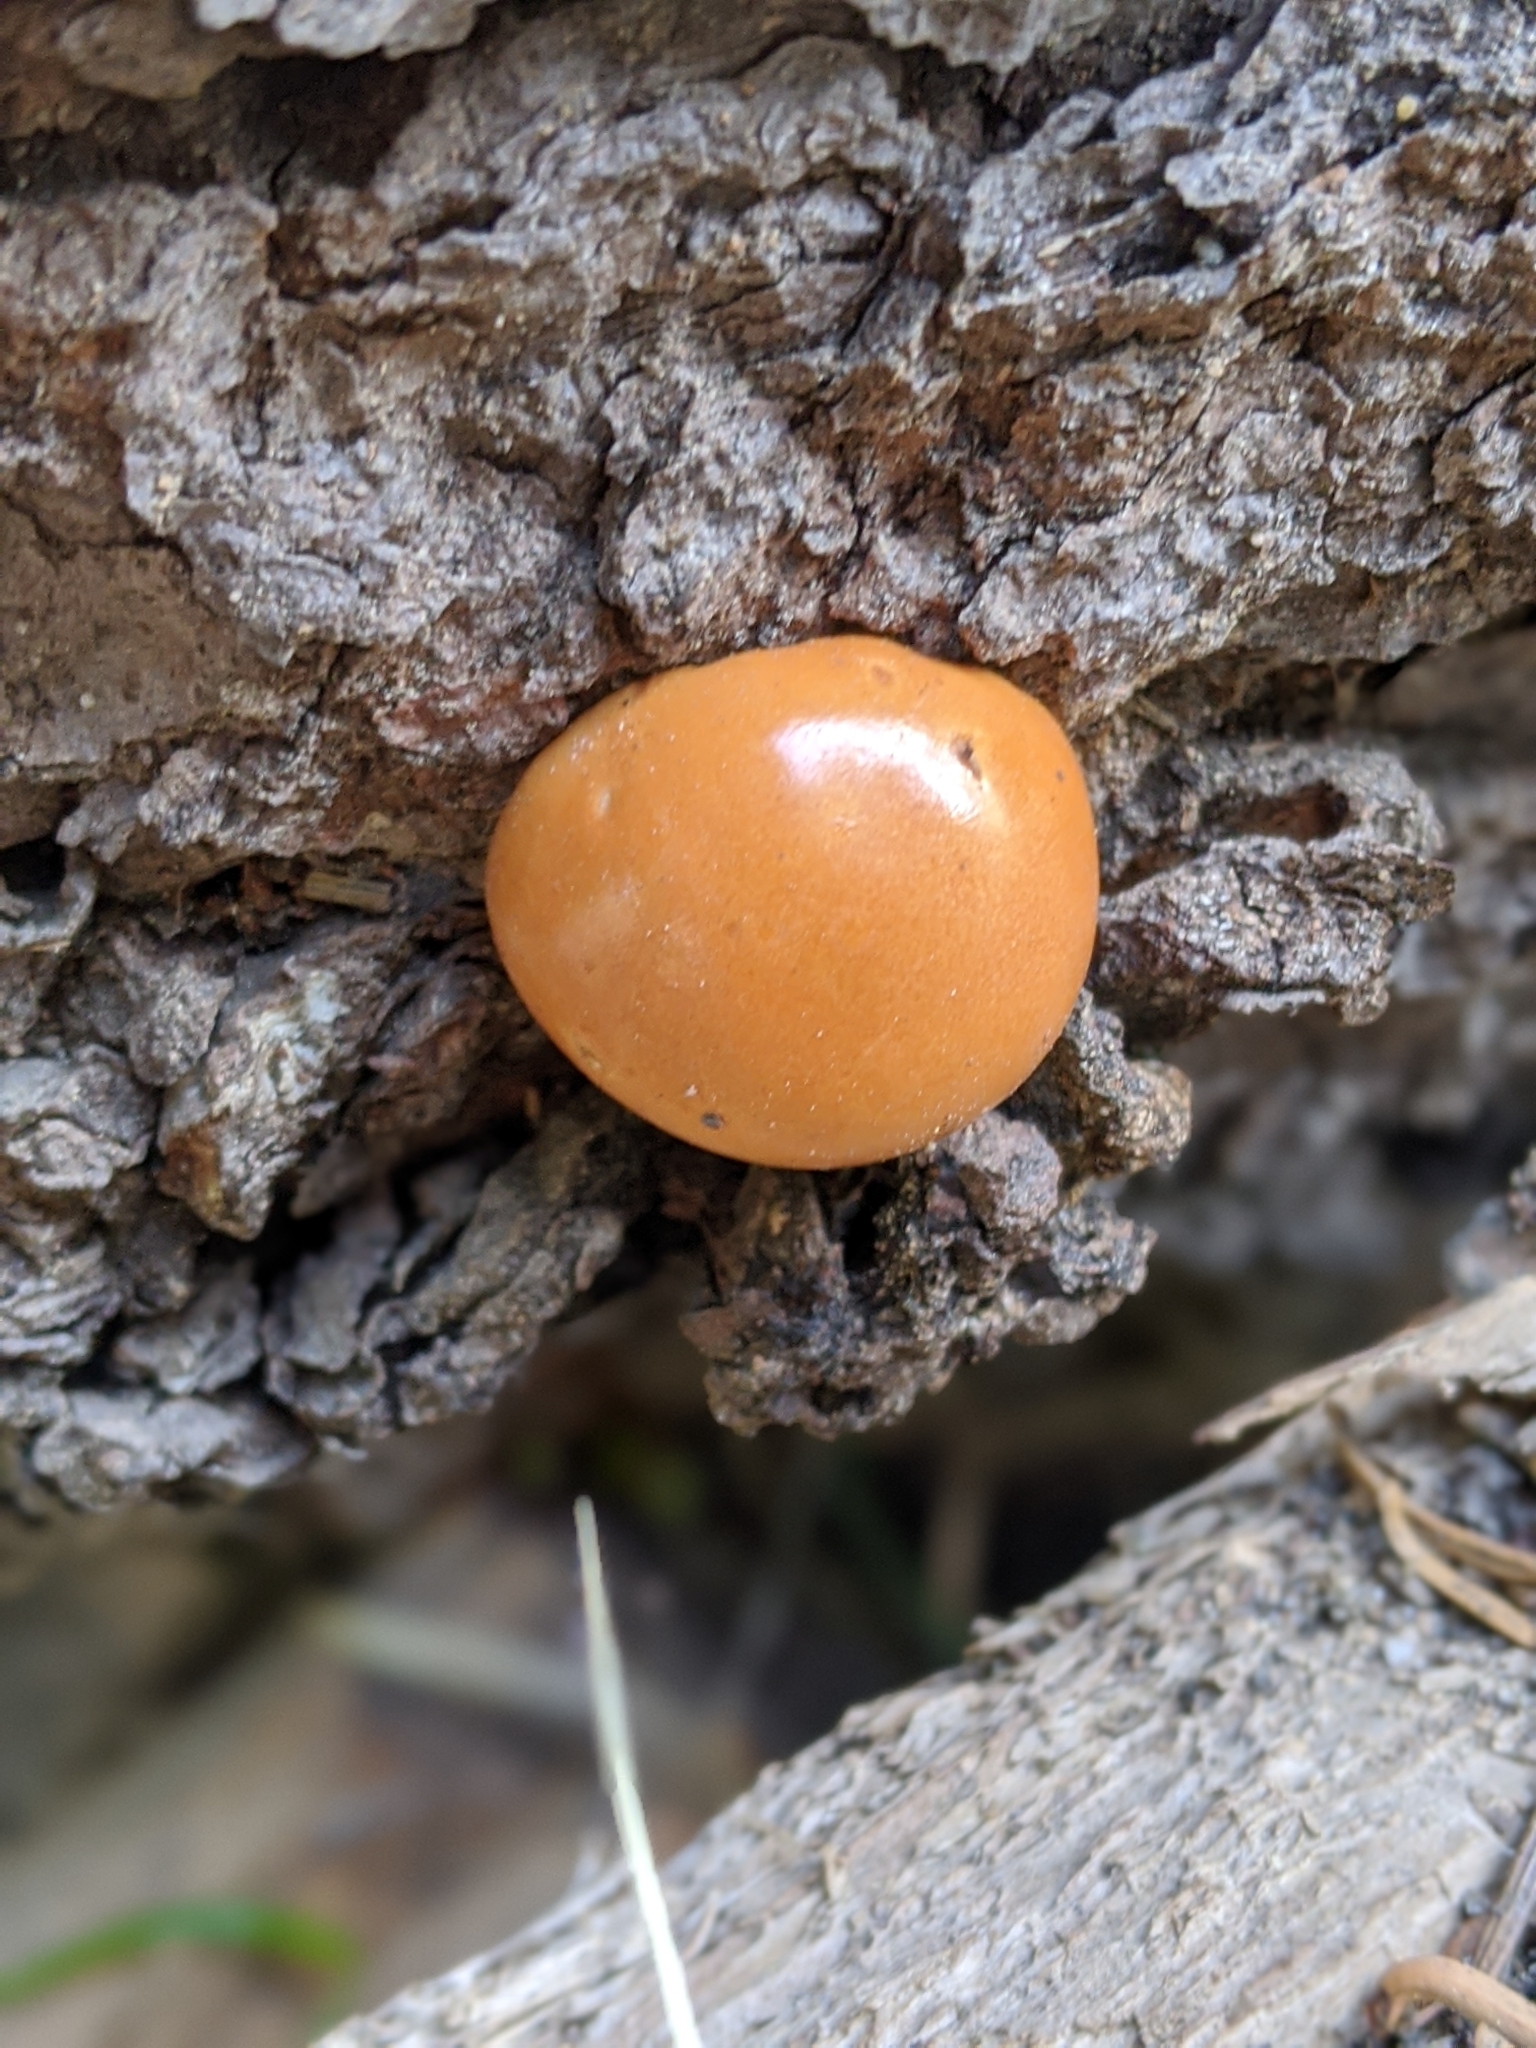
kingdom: Fungi
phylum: Basidiomycota
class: Agaricomycetes
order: Polyporales
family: Polyporaceae
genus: Cryptoporus
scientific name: Cryptoporus volvatus
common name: Veiled polypore
